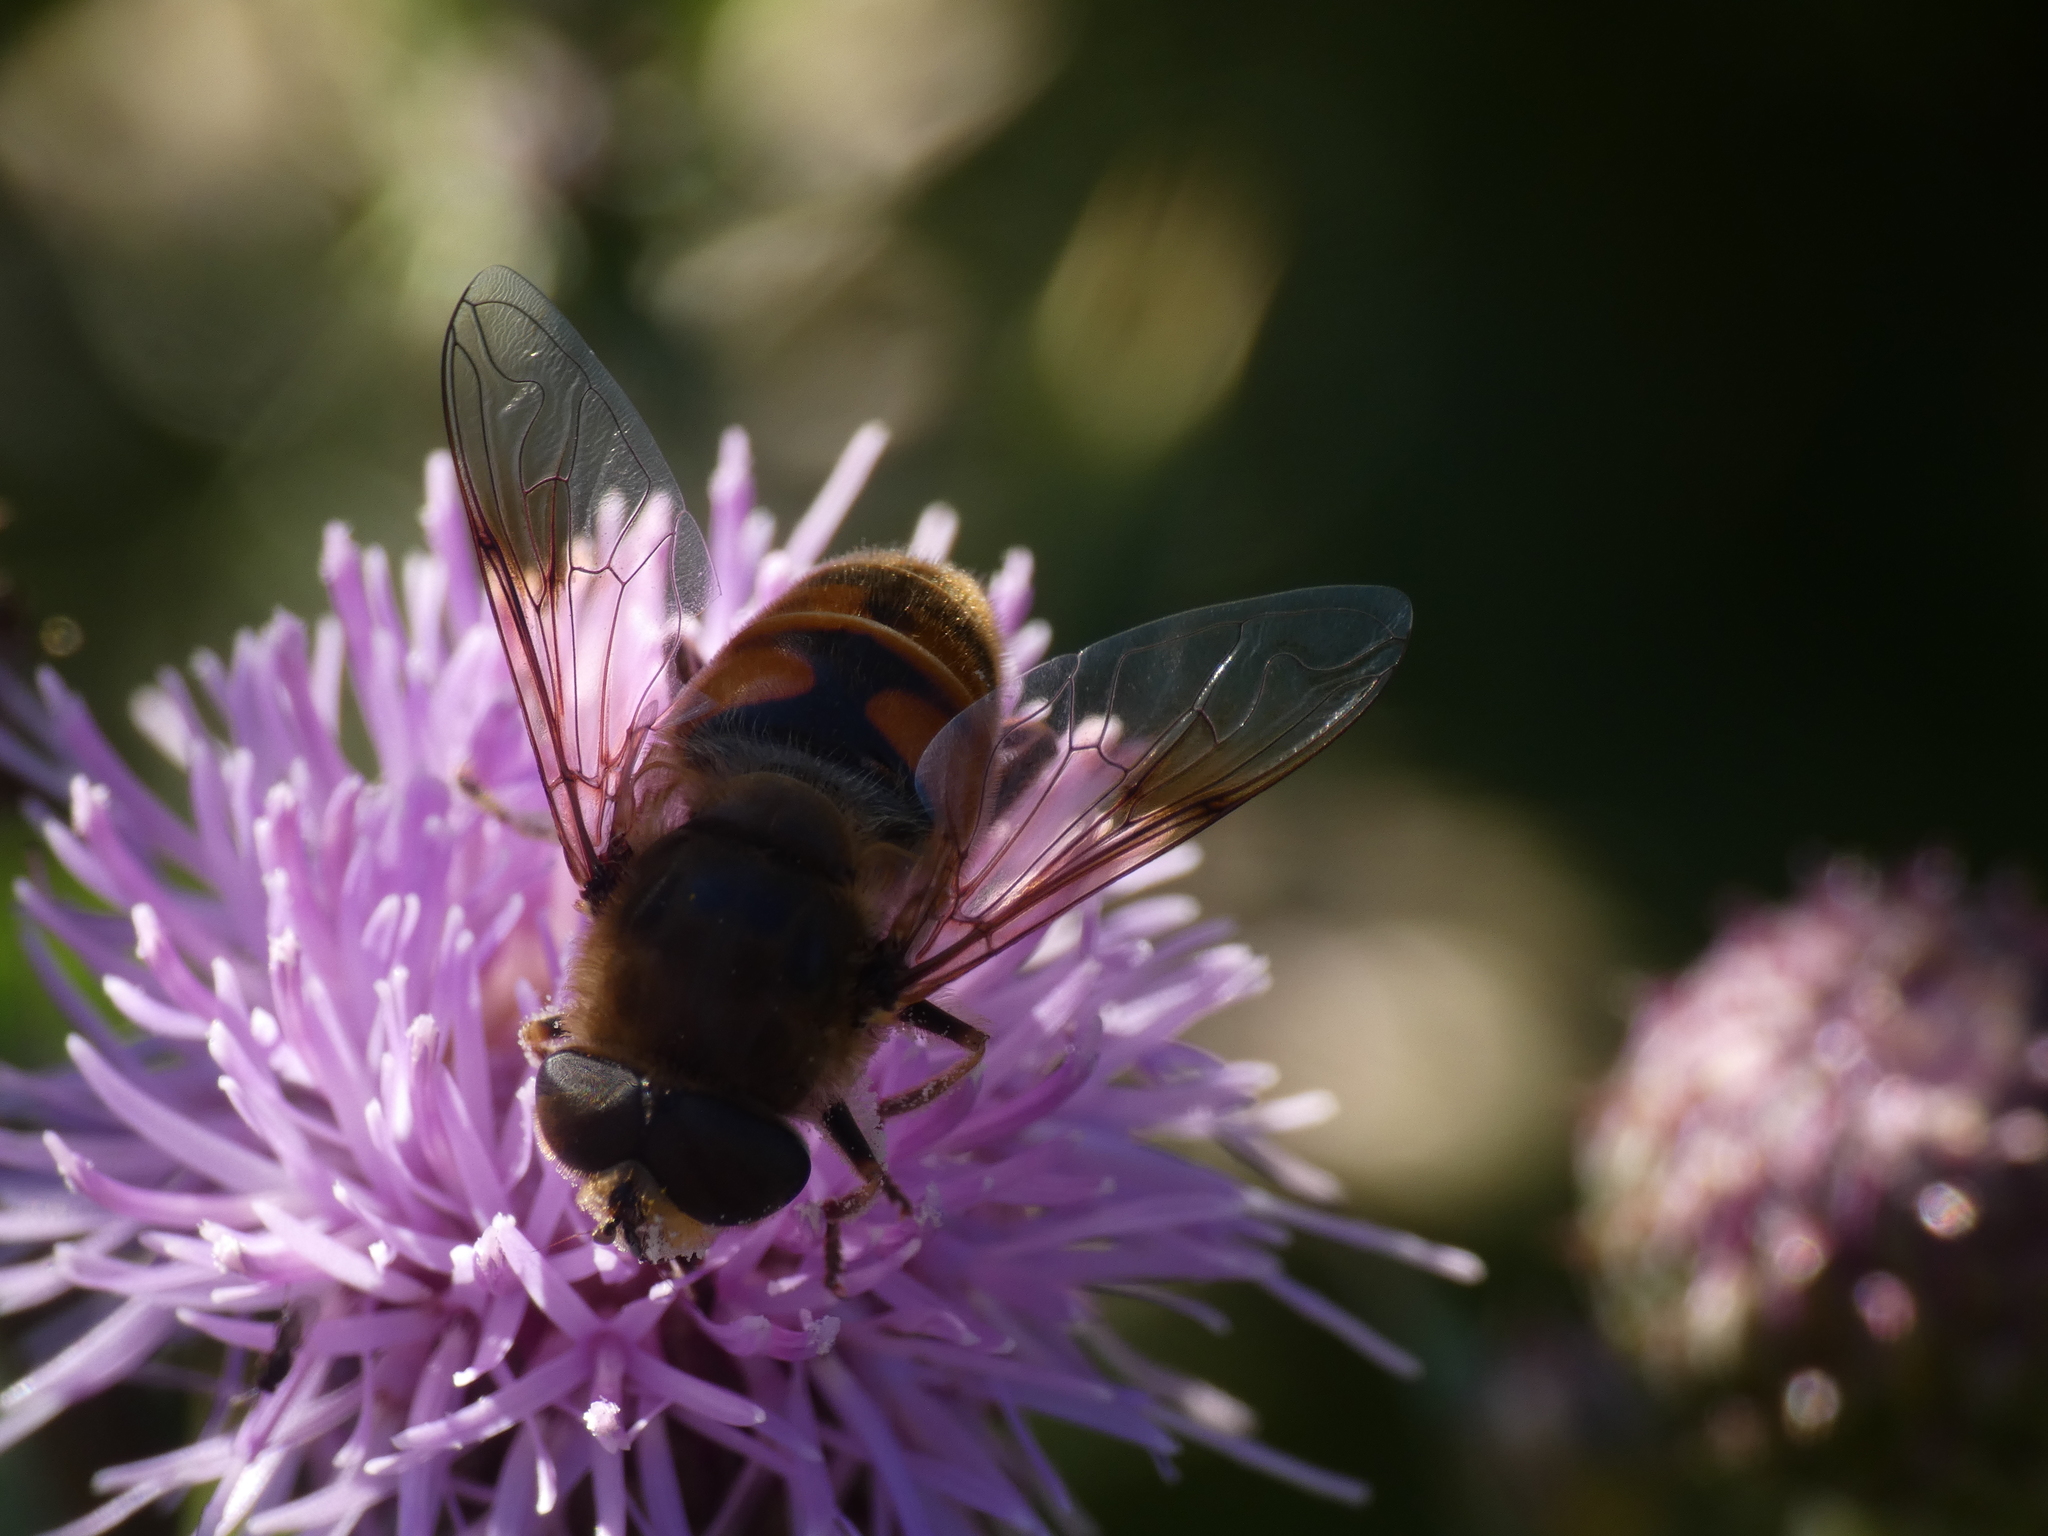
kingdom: Animalia
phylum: Arthropoda
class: Insecta
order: Diptera
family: Syrphidae
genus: Eristalis
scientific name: Eristalis tenax
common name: Drone fly
